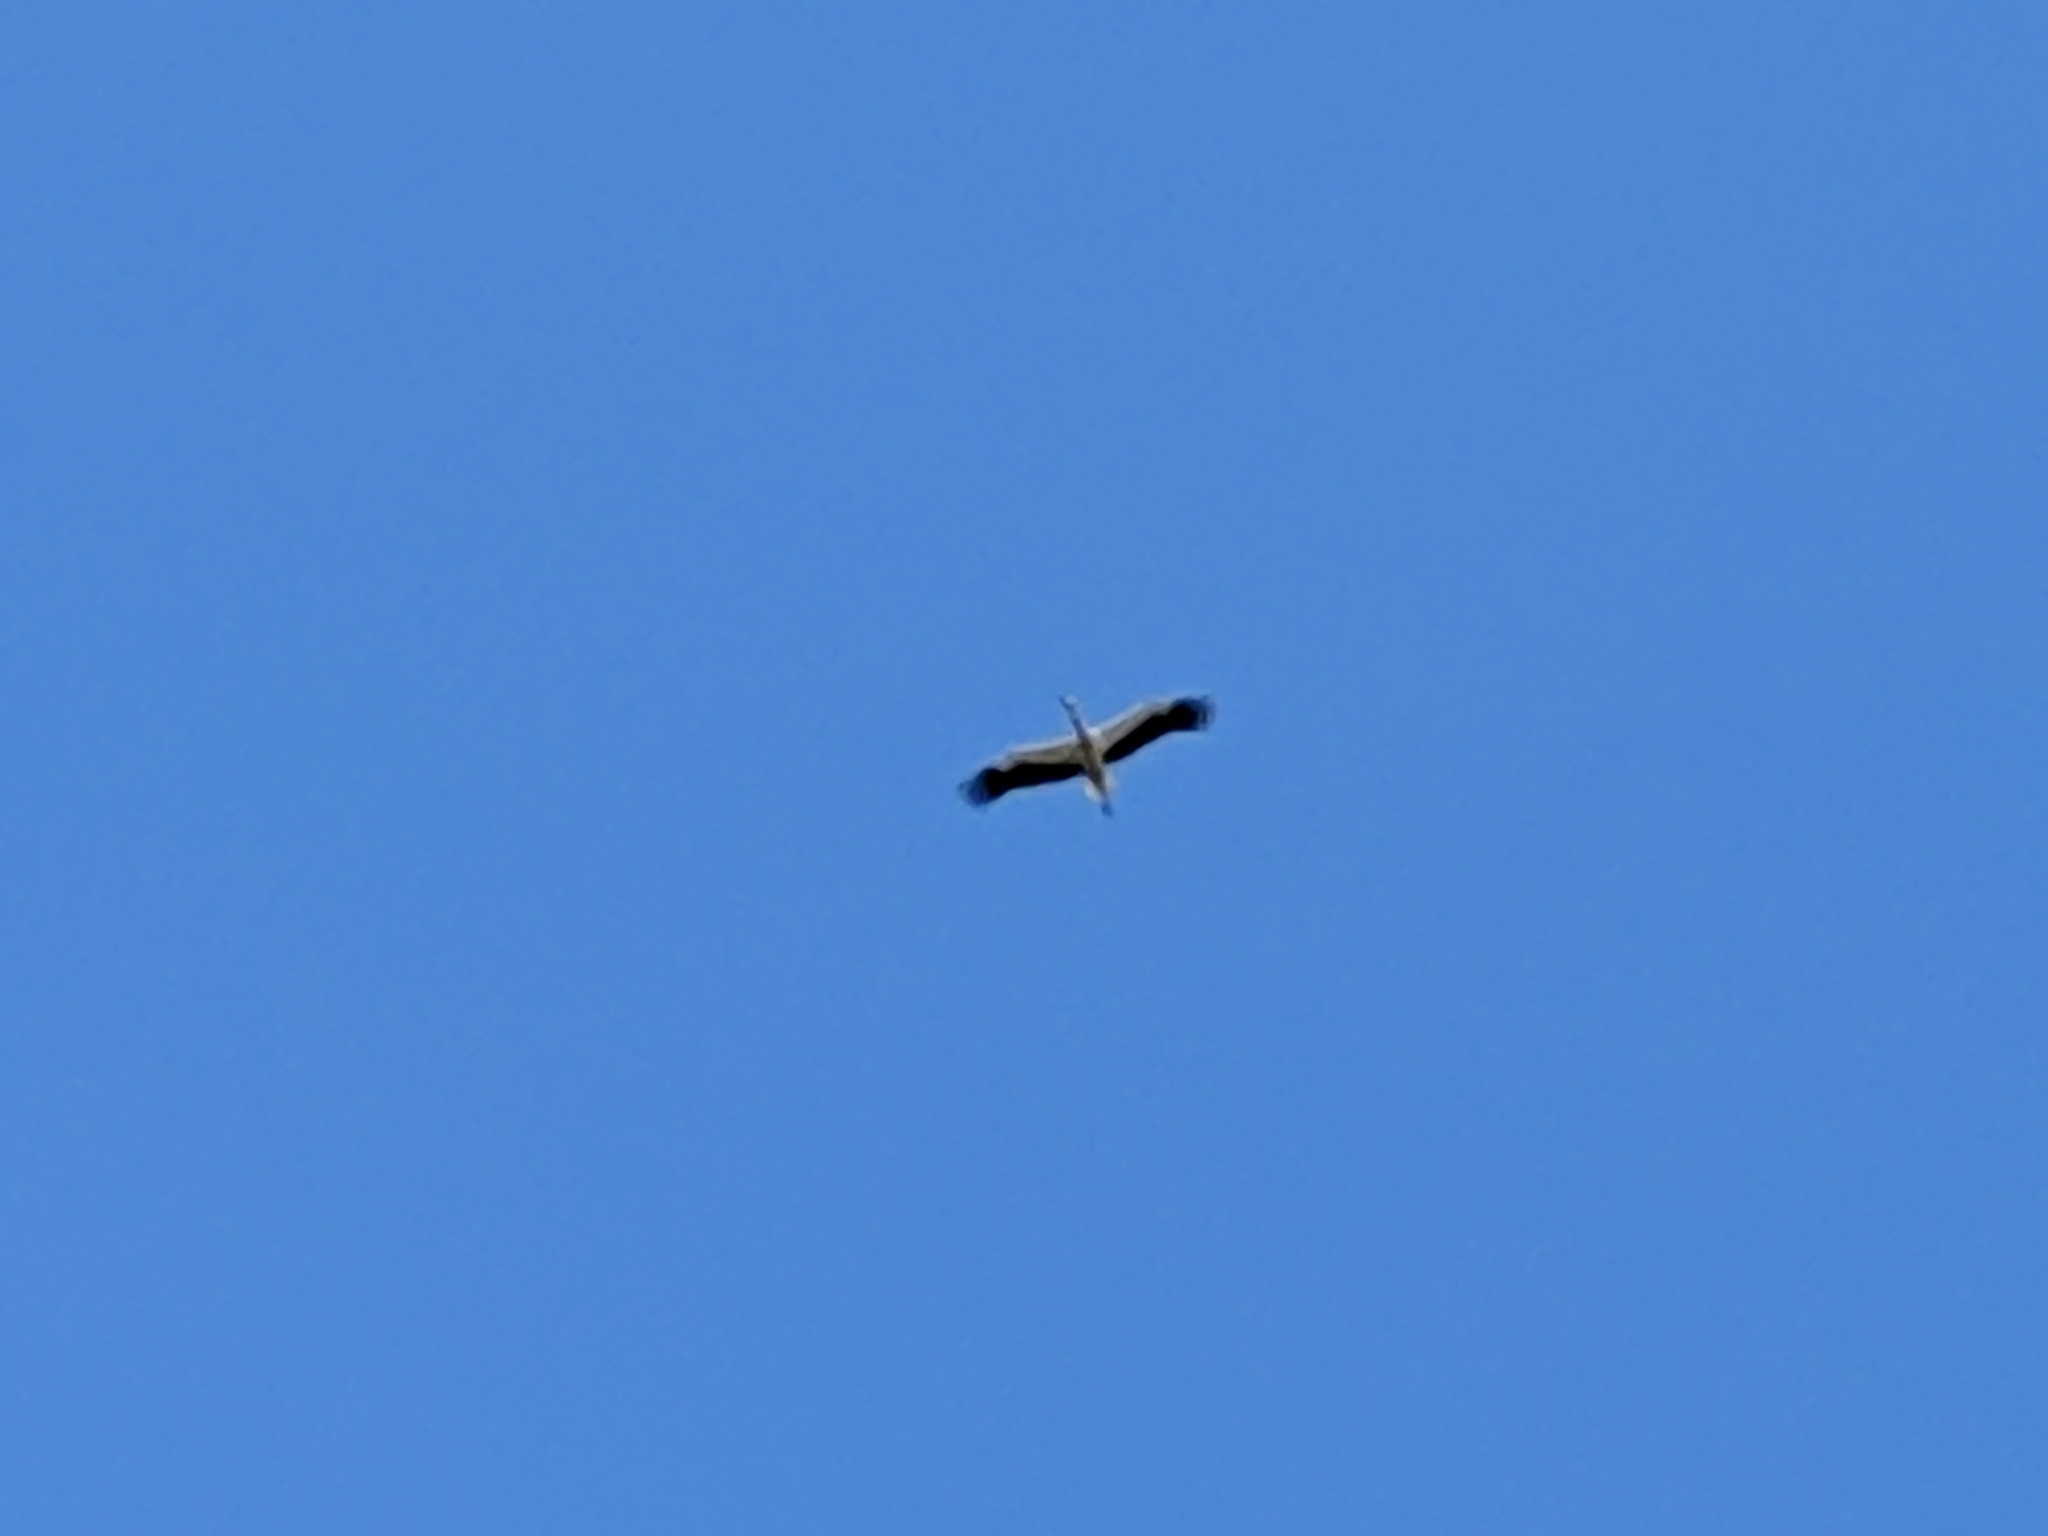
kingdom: Animalia
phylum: Chordata
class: Aves
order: Ciconiiformes
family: Ciconiidae
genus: Ciconia
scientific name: Ciconia ciconia
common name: White stork
